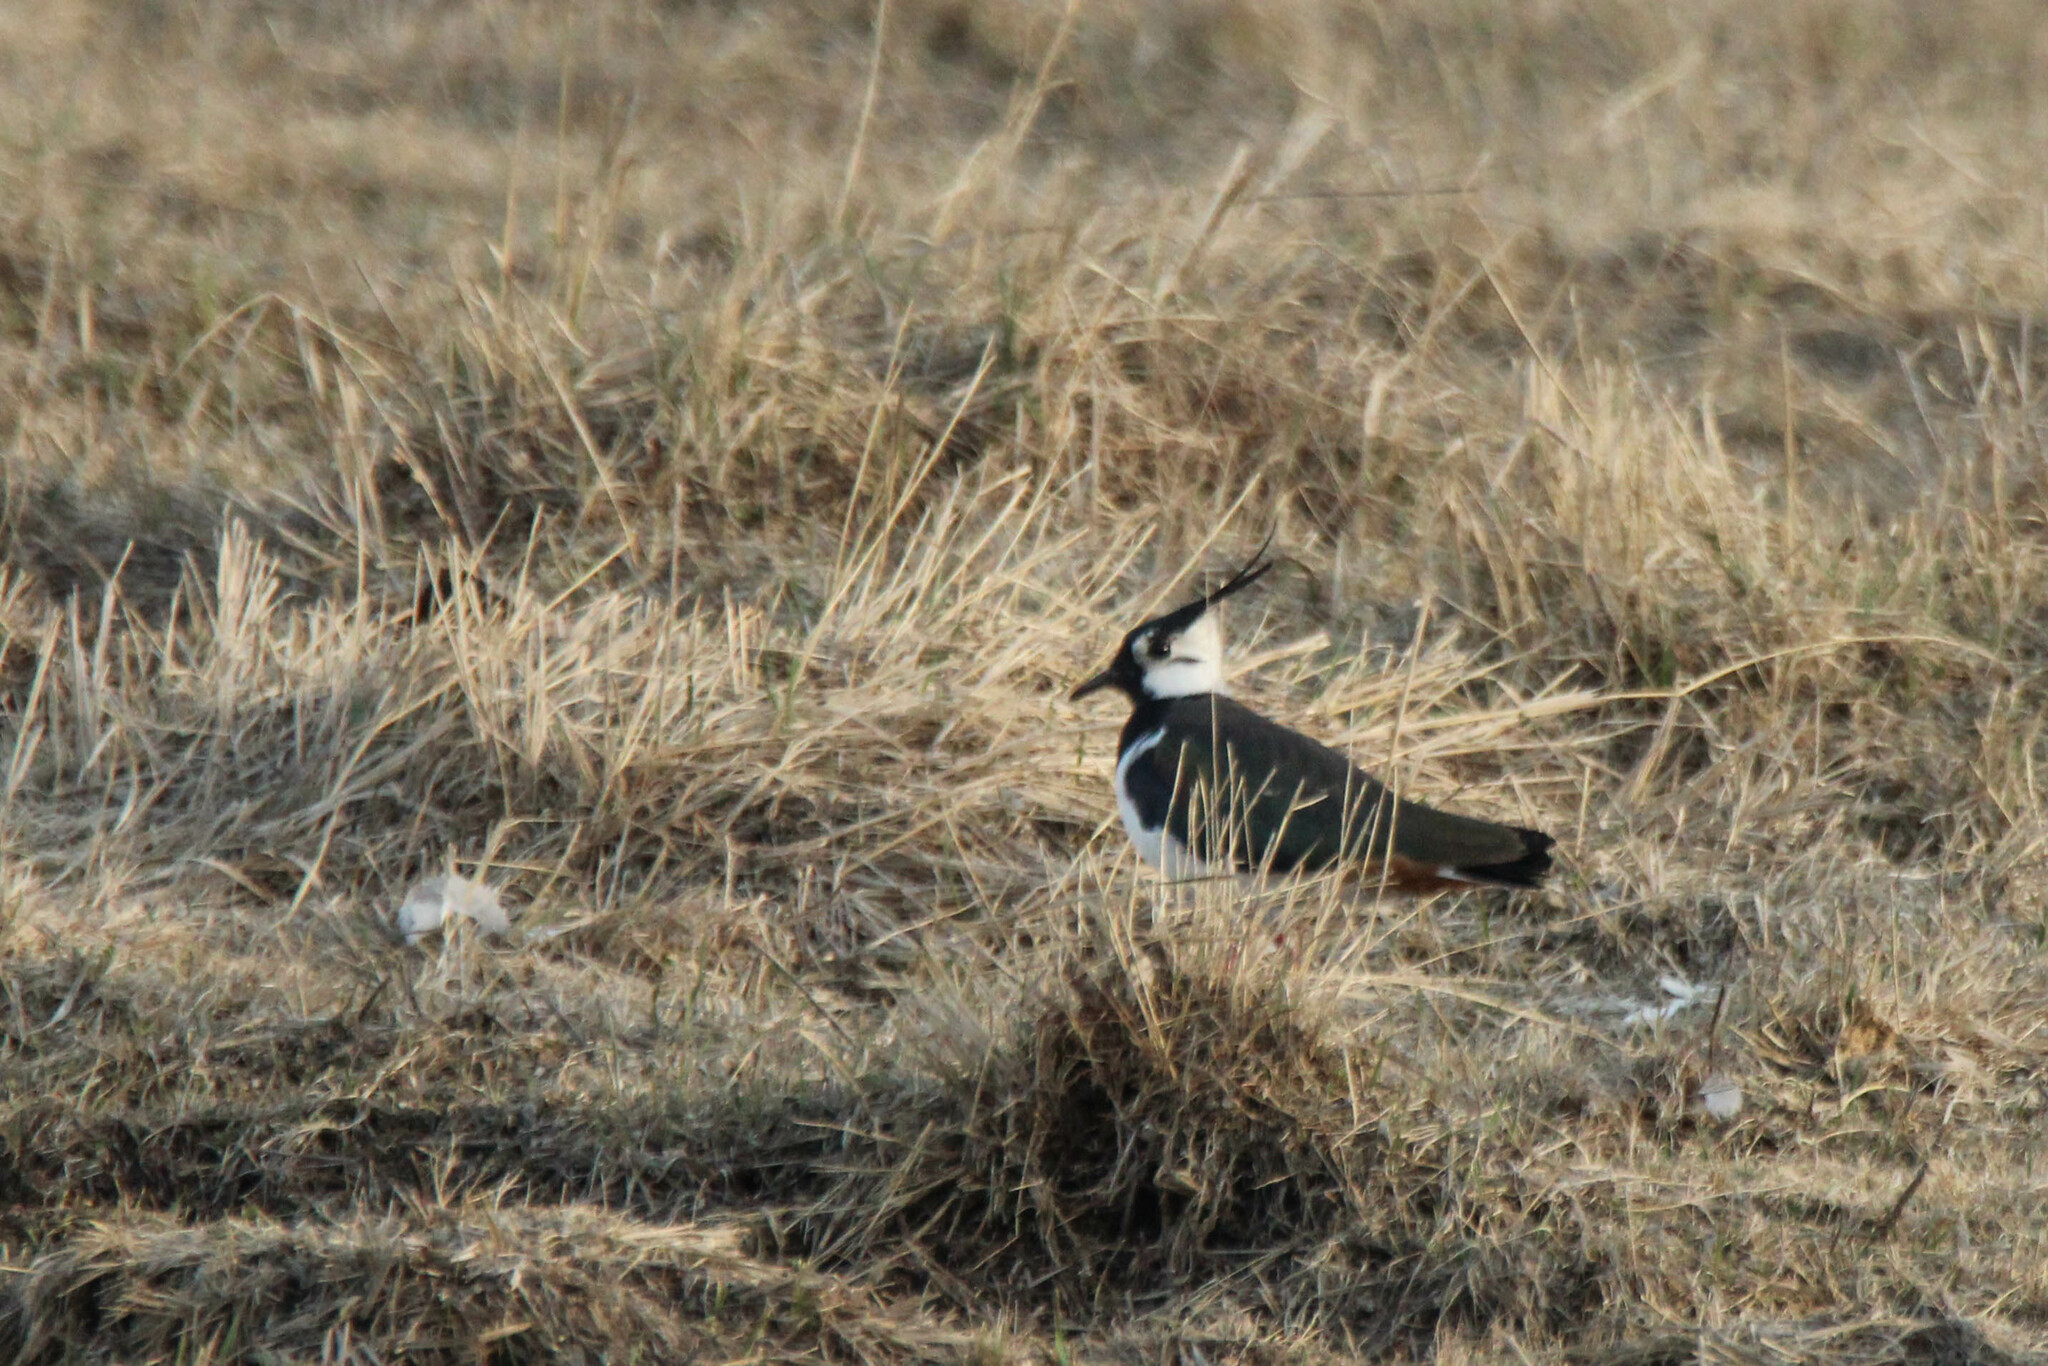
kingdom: Animalia
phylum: Chordata
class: Aves
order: Charadriiformes
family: Charadriidae
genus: Vanellus
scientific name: Vanellus vanellus
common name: Northern lapwing
